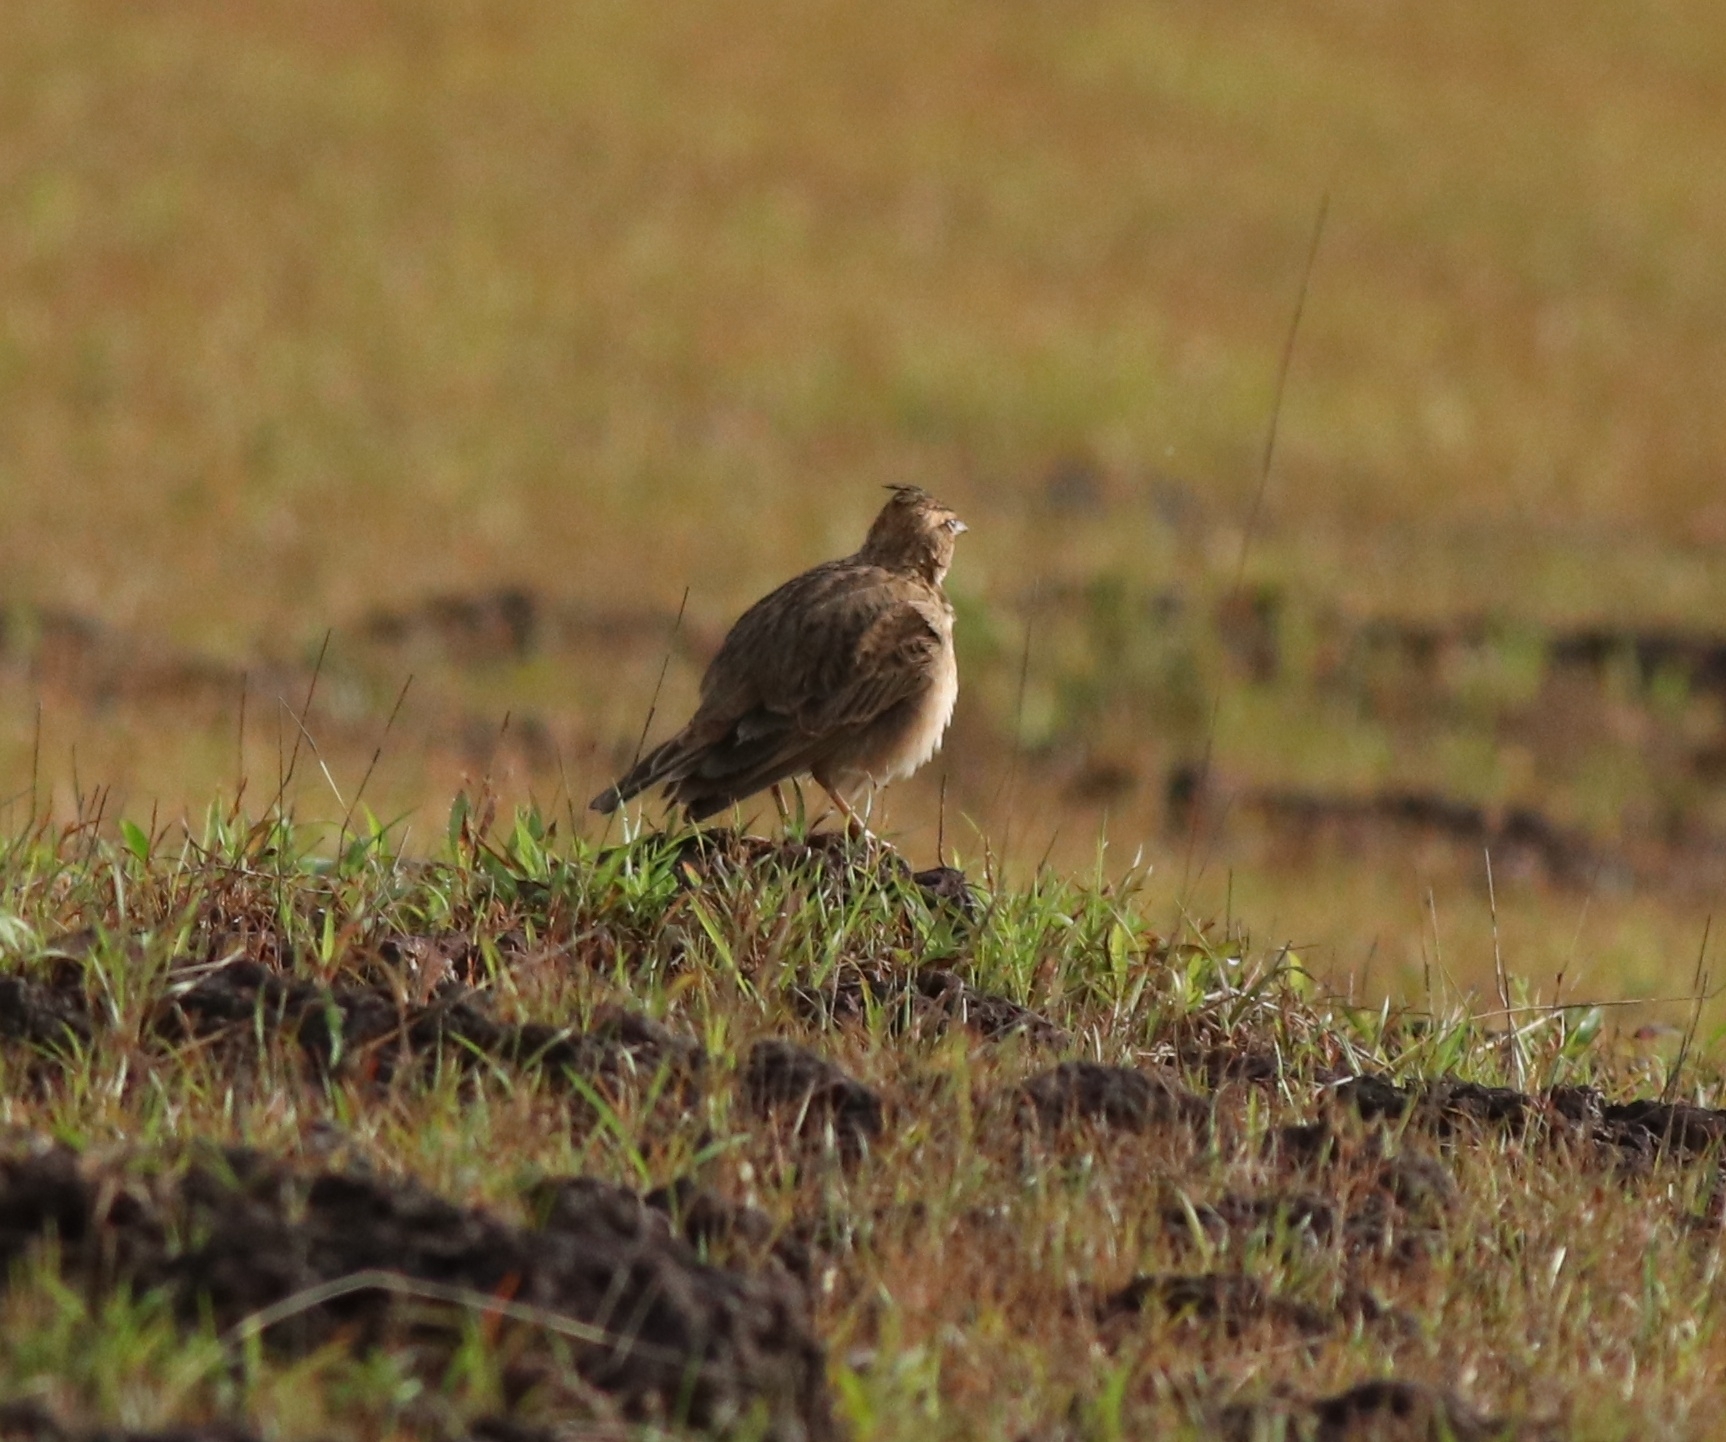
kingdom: Animalia
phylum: Chordata
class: Aves
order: Passeriformes
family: Alaudidae
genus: Galerida
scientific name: Galerida malabarica
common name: Malabar lark
